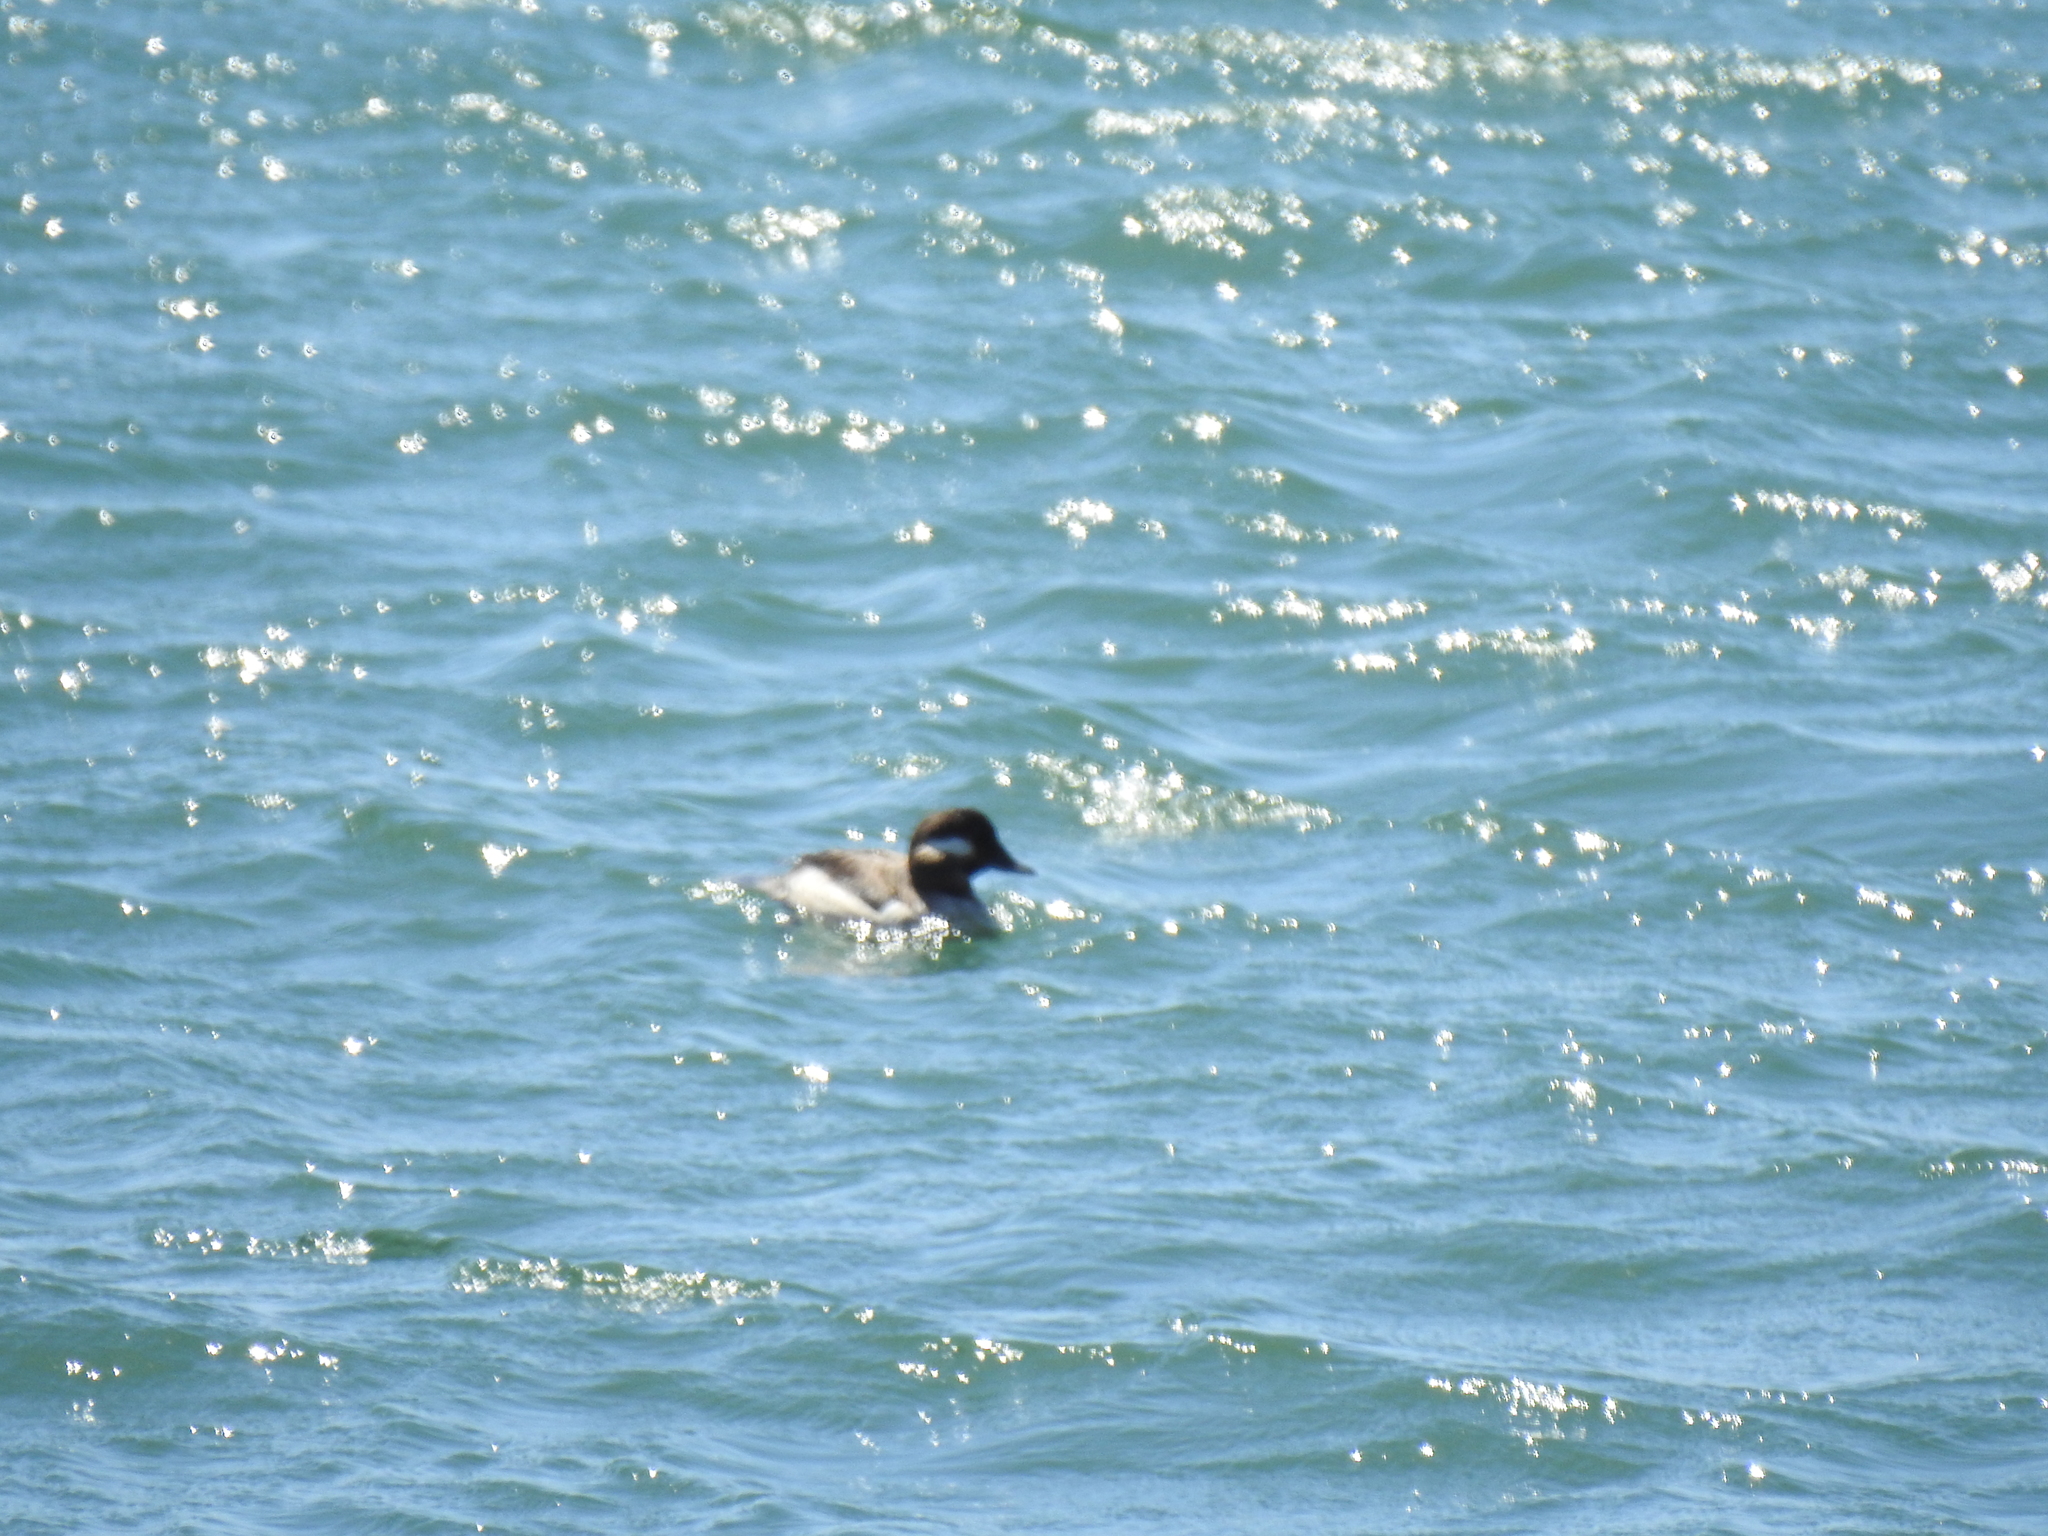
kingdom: Animalia
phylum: Chordata
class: Aves
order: Anseriformes
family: Anatidae
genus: Bucephala
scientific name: Bucephala albeola
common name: Bufflehead
